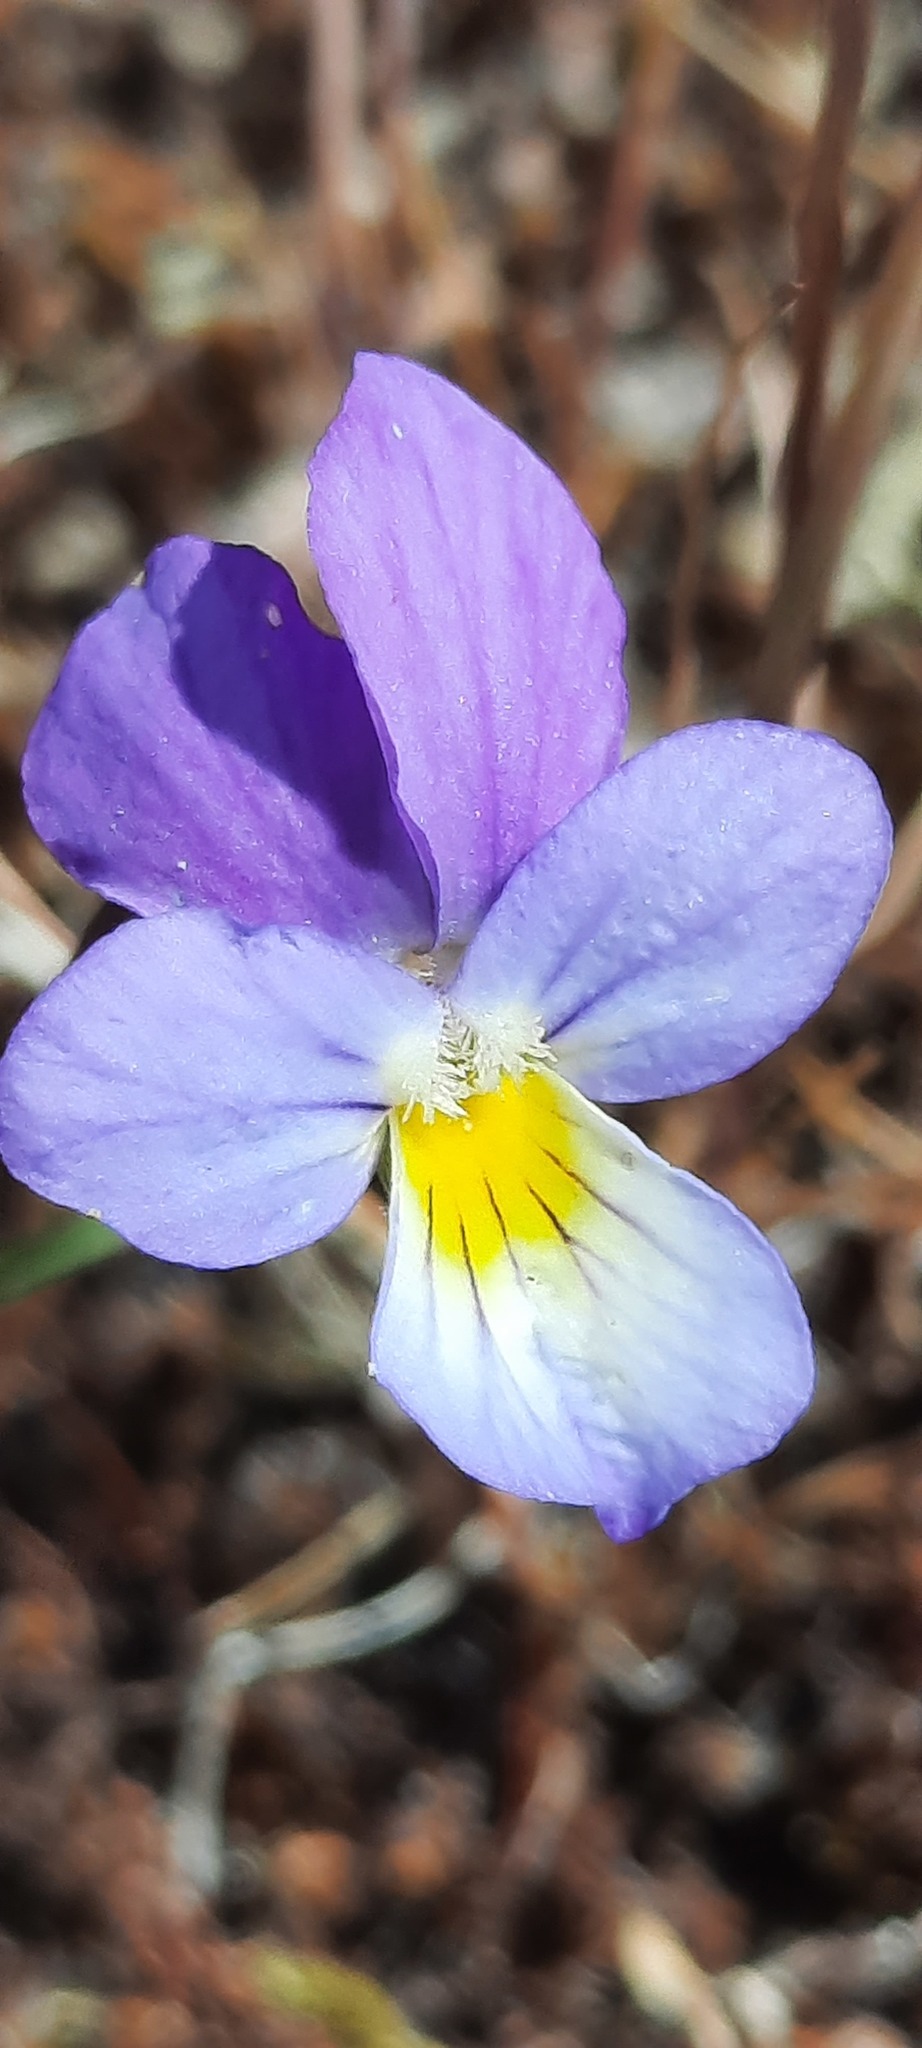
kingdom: Plantae
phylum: Tracheophyta
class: Magnoliopsida
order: Malpighiales
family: Violaceae
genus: Viola
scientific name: Viola tricolor
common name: Pansy
